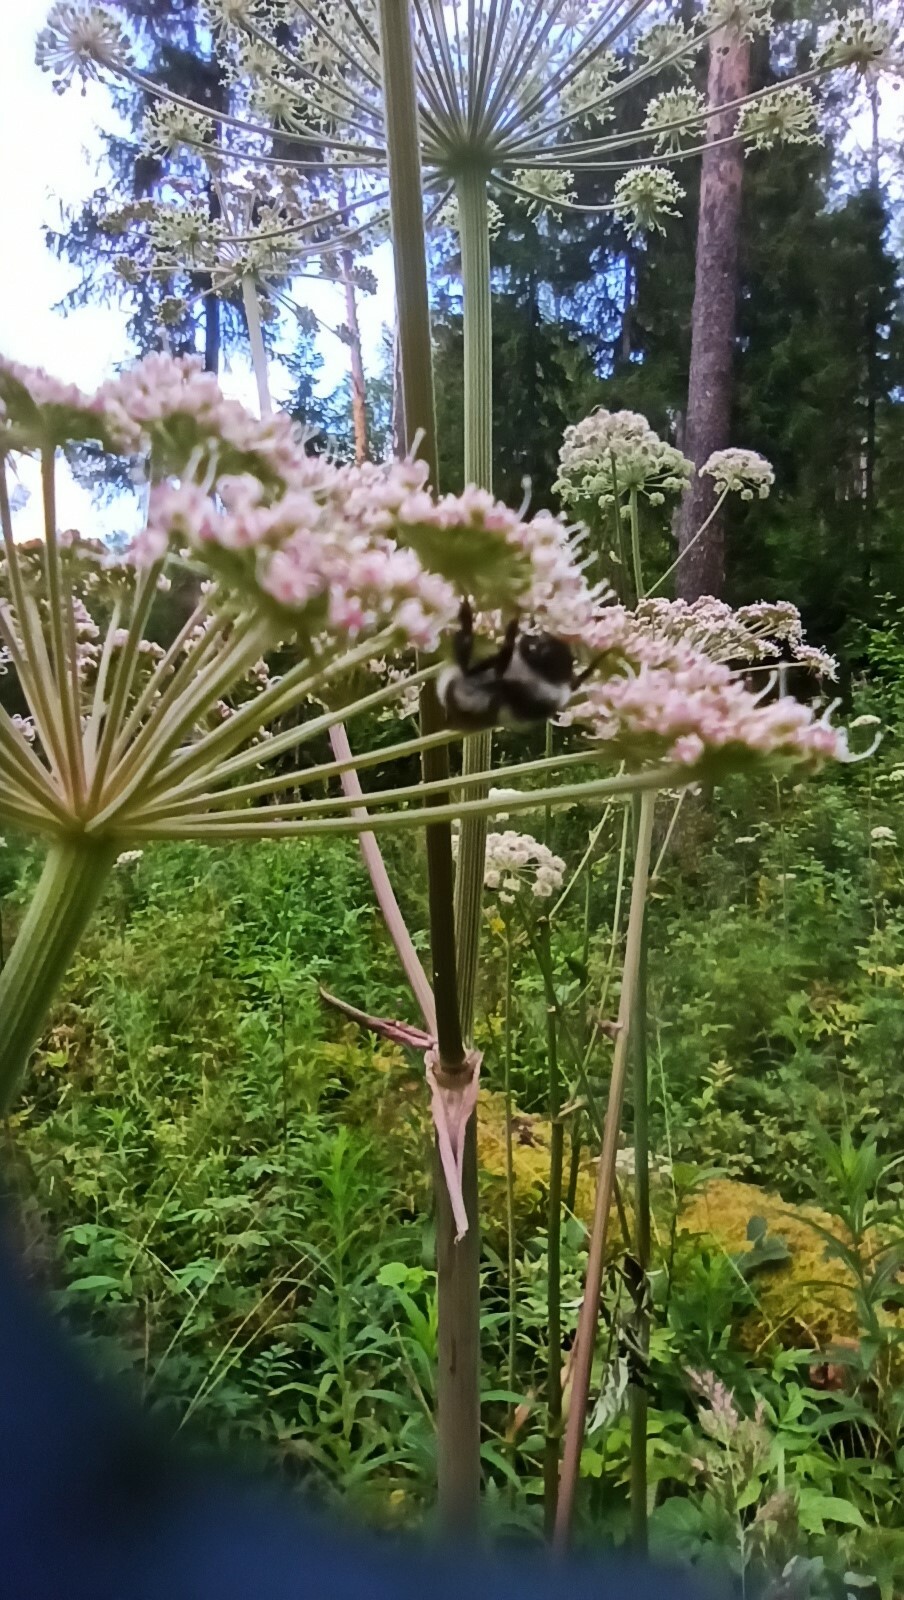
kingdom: Animalia
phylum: Arthropoda
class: Insecta
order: Hymenoptera
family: Apidae
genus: Bombus
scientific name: Bombus
